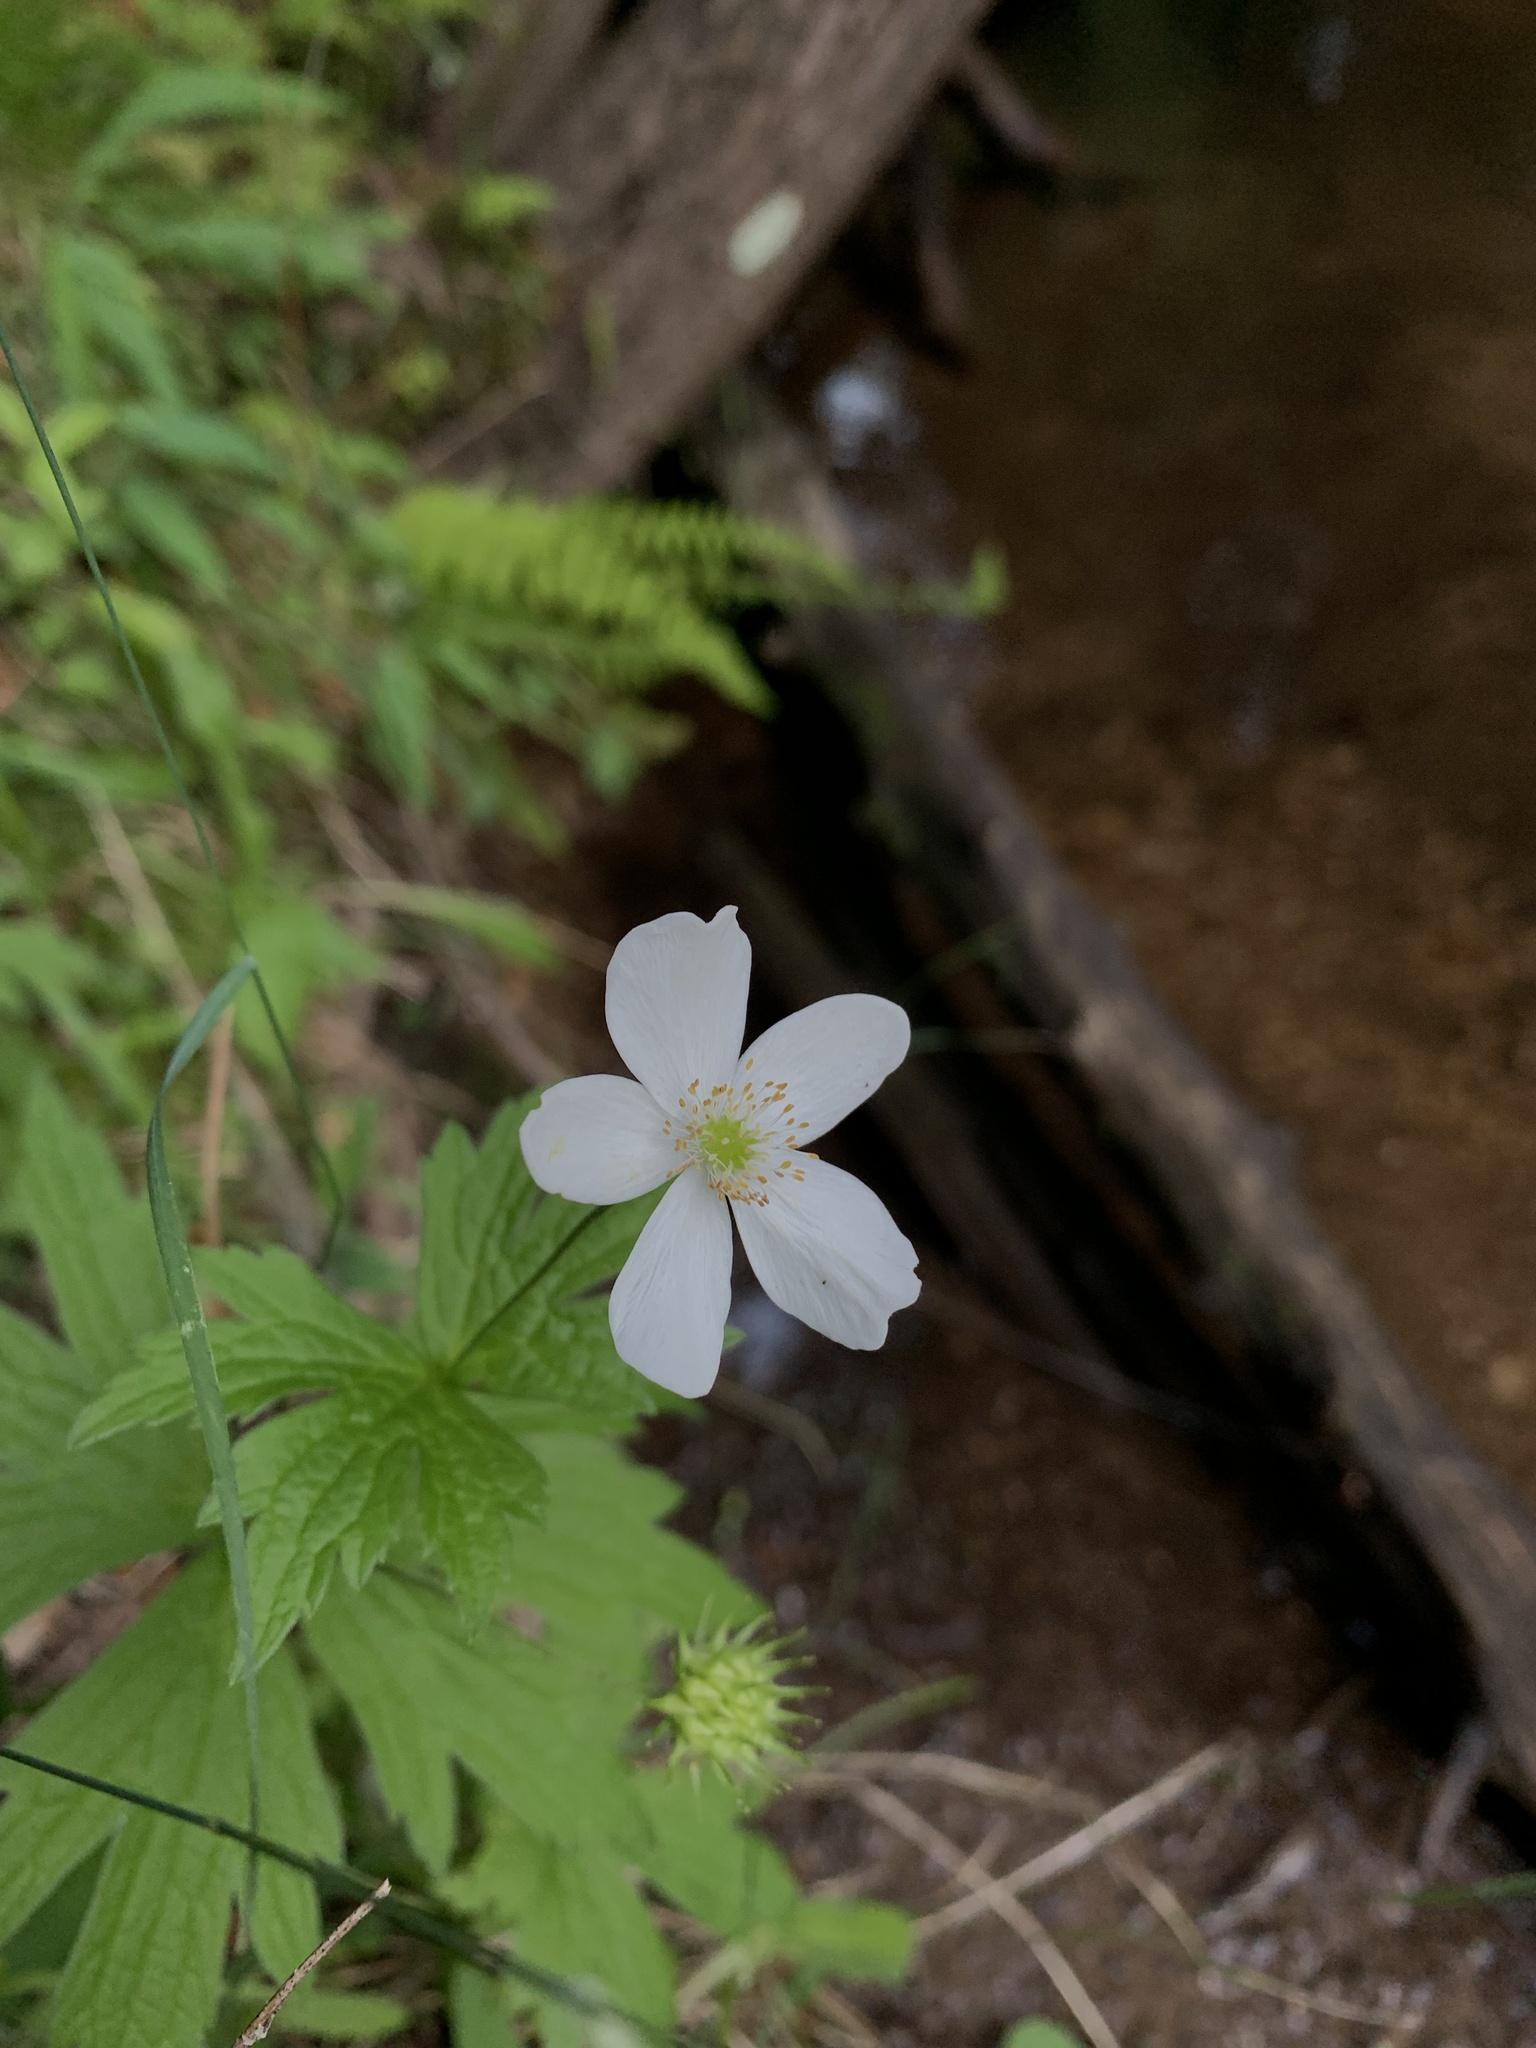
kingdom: Plantae
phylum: Tracheophyta
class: Magnoliopsida
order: Ranunculales
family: Ranunculaceae
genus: Anemonastrum
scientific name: Anemonastrum canadense
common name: Canada anemone
